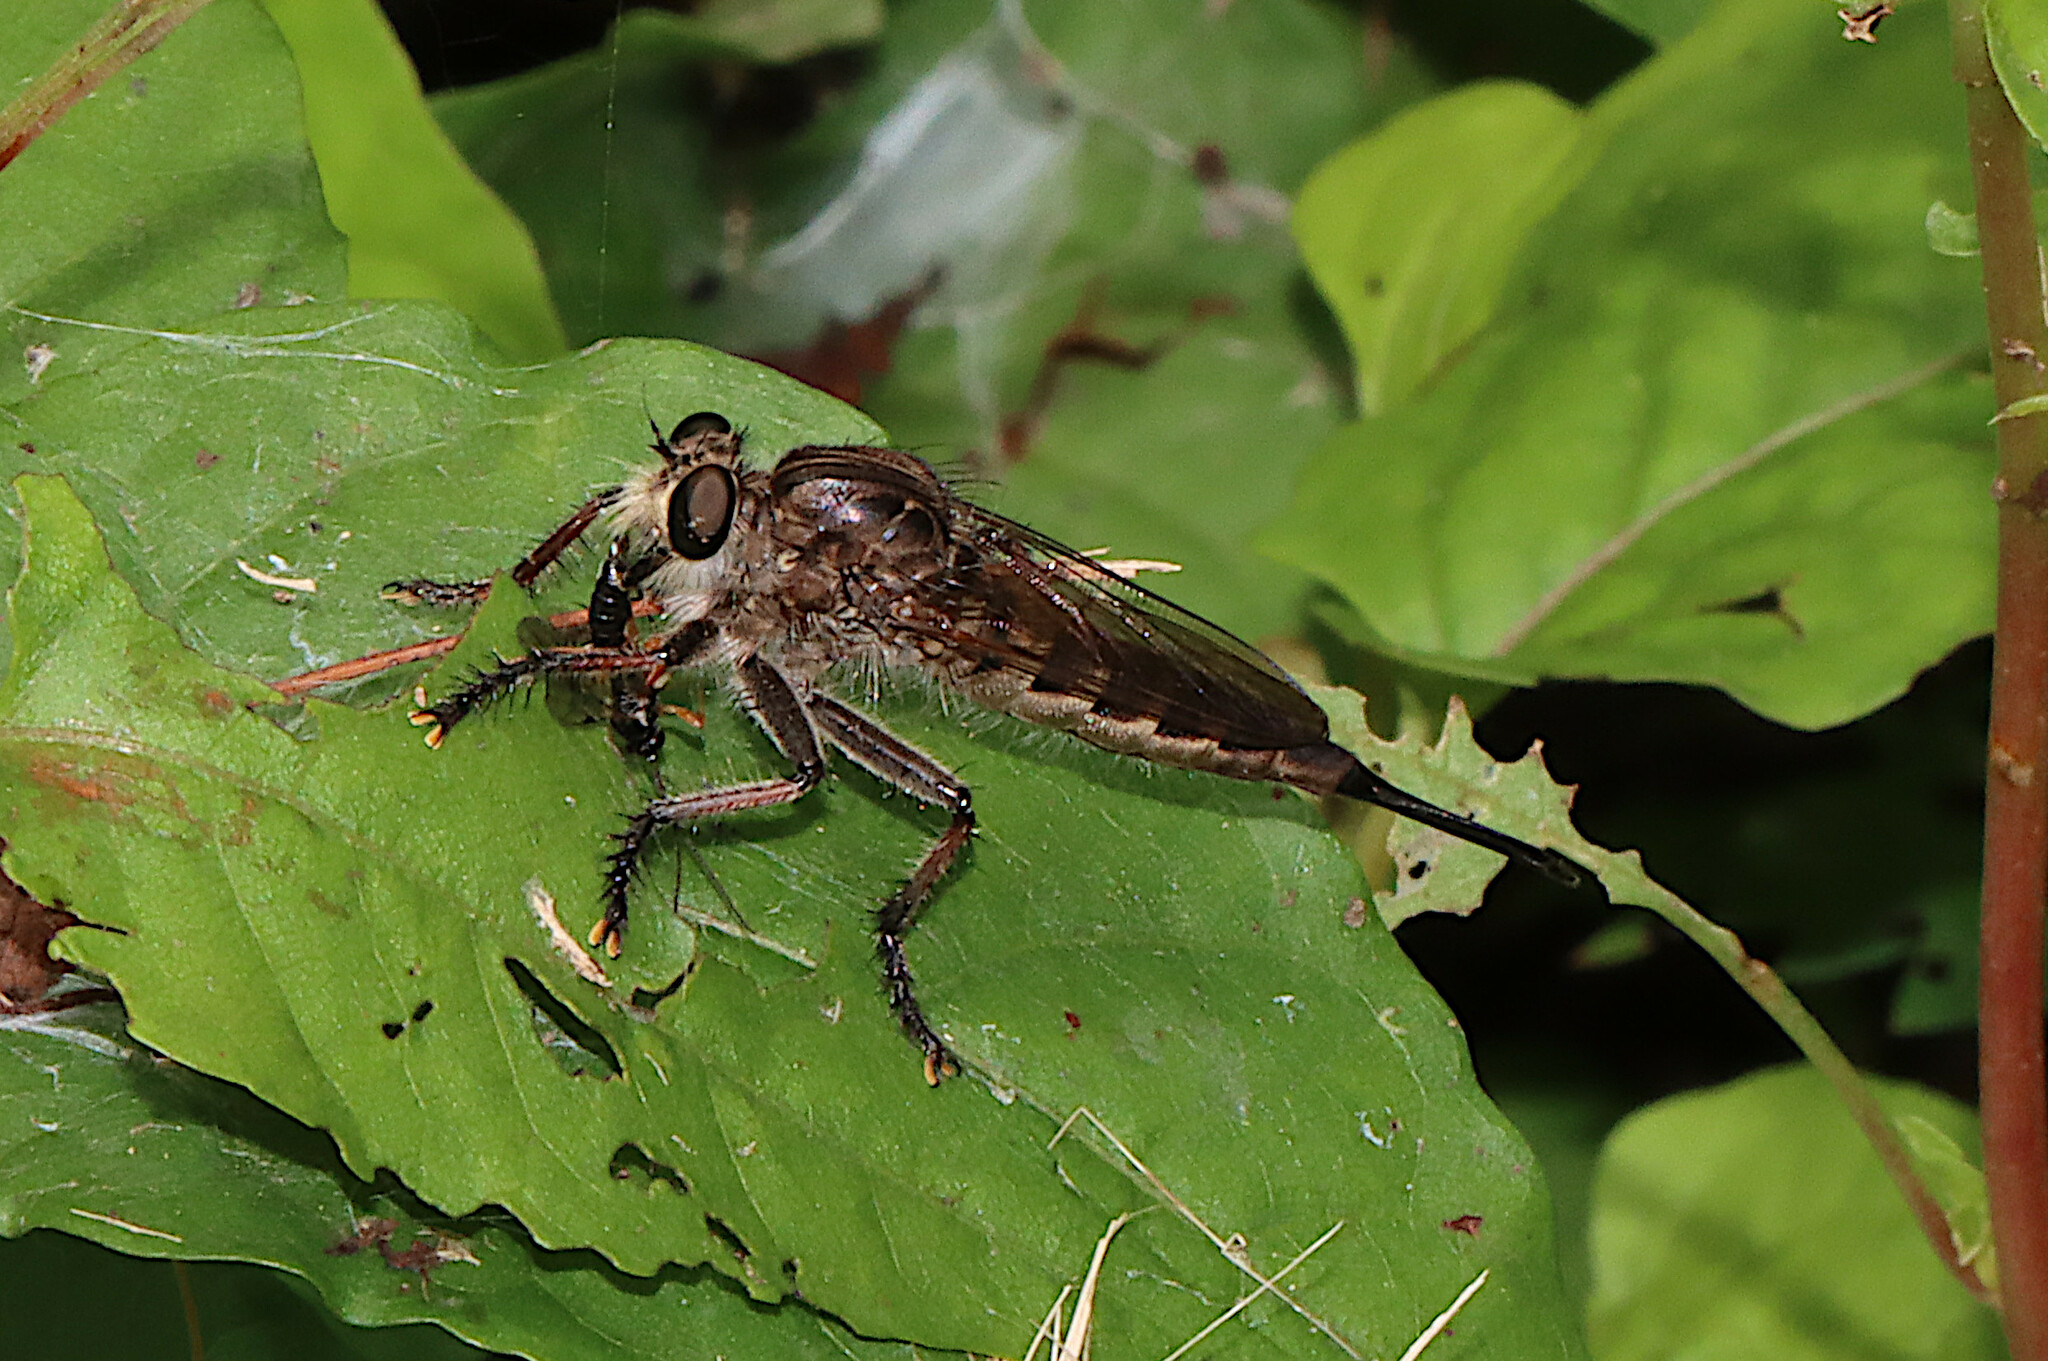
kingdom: Animalia
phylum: Arthropoda
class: Insecta
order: Diptera
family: Asilidae
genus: Efferia
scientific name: Efferia nemoralis
